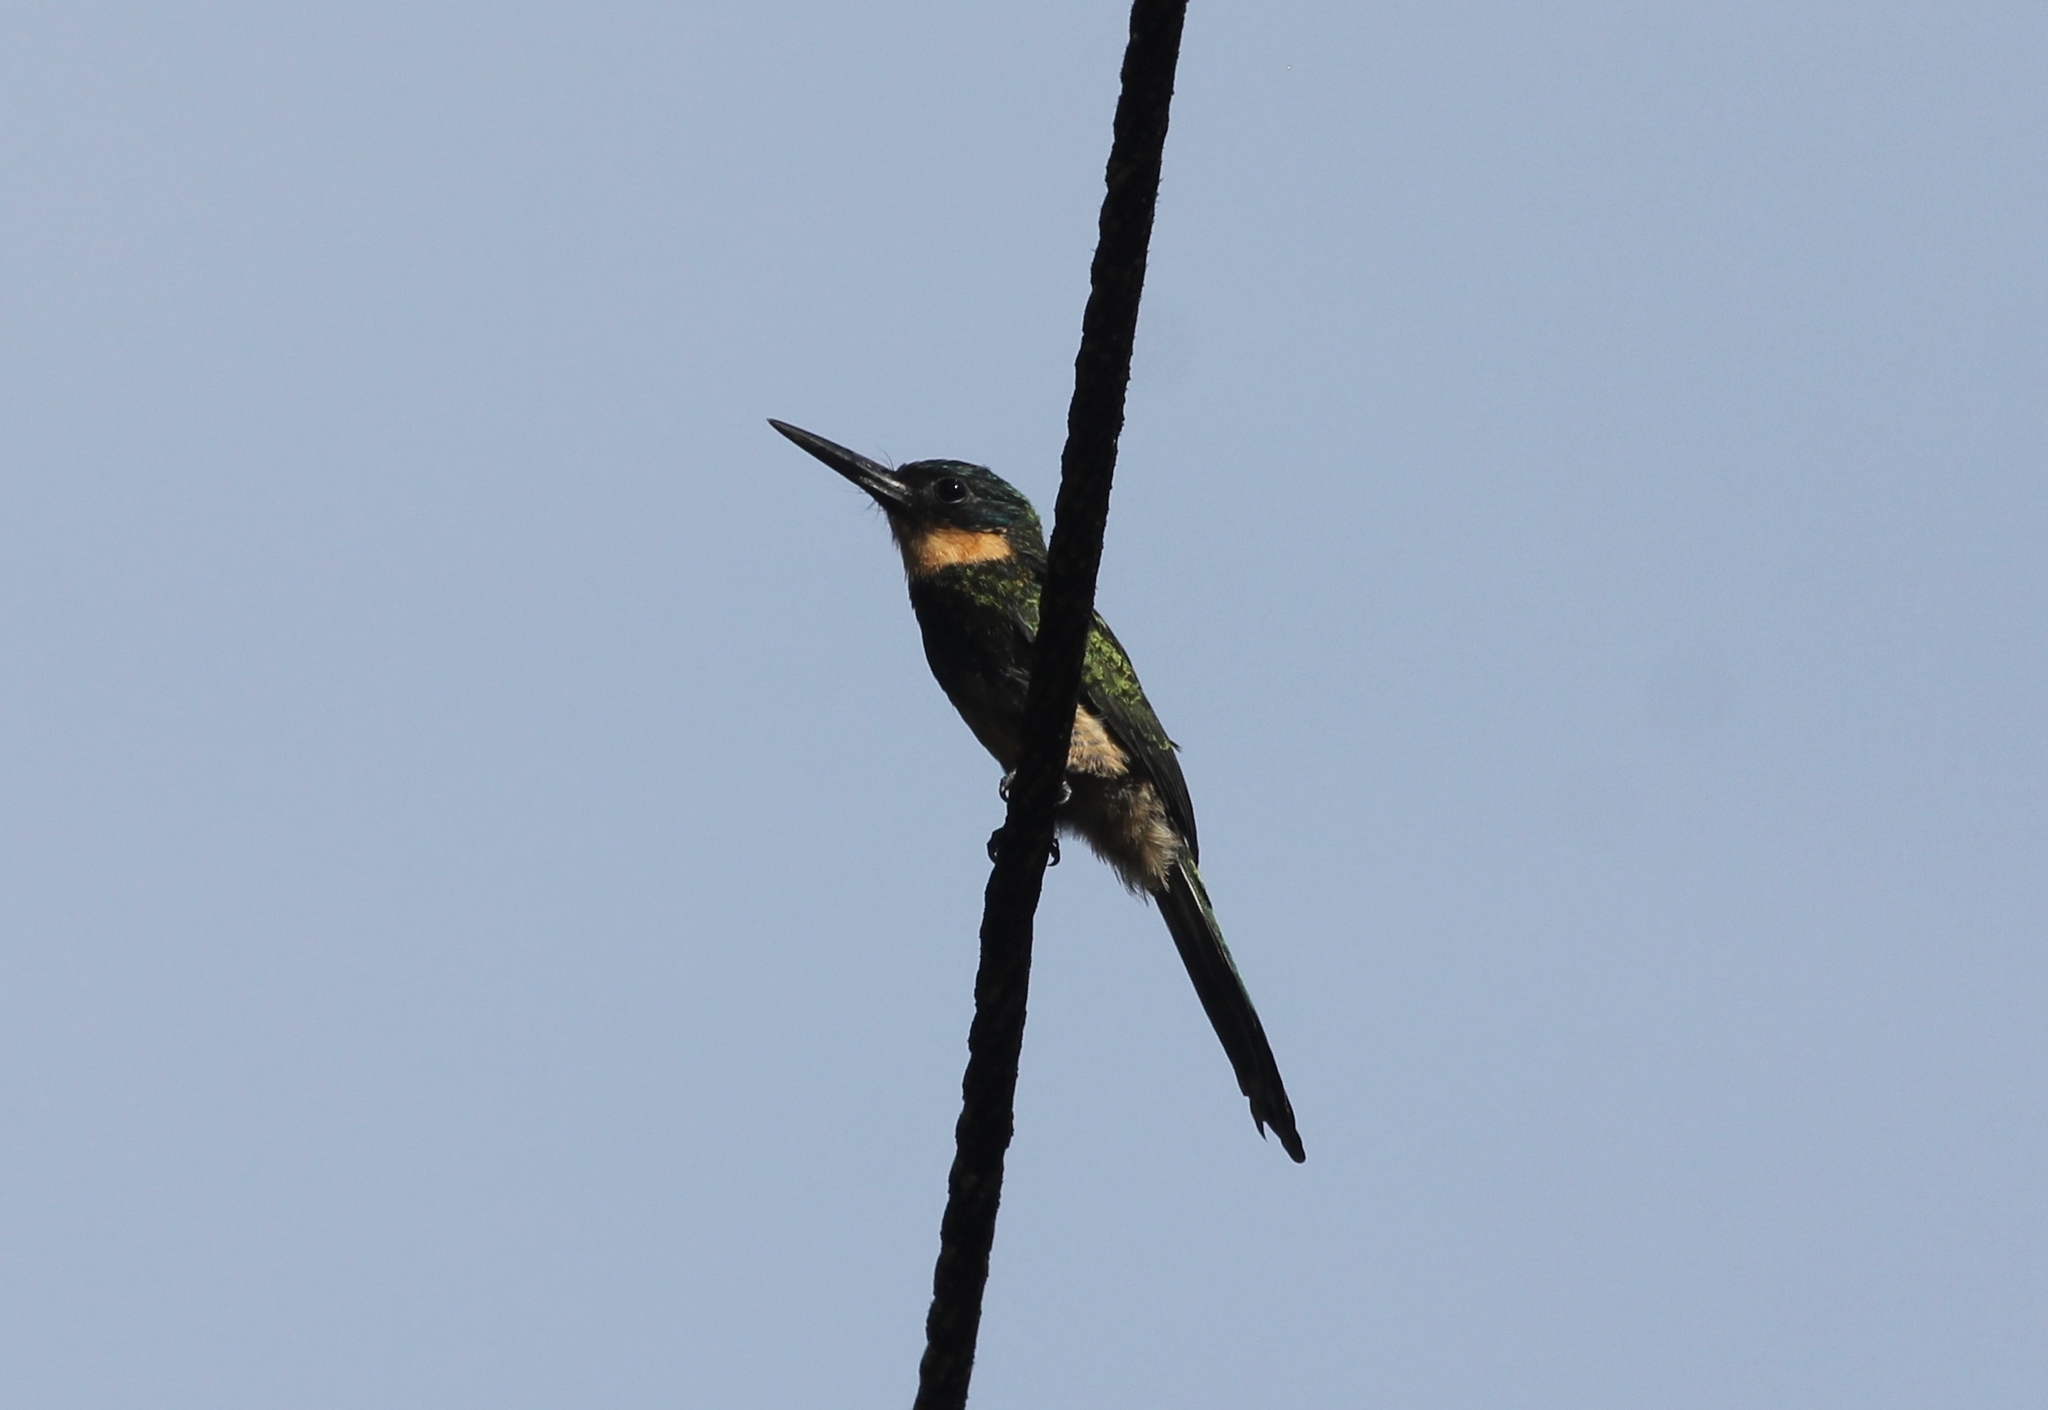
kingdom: Animalia
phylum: Chordata
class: Aves
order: Piciformes
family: Galbulidae
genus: Galbula
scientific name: Galbula leucogastra
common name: Bronzy jacamar
